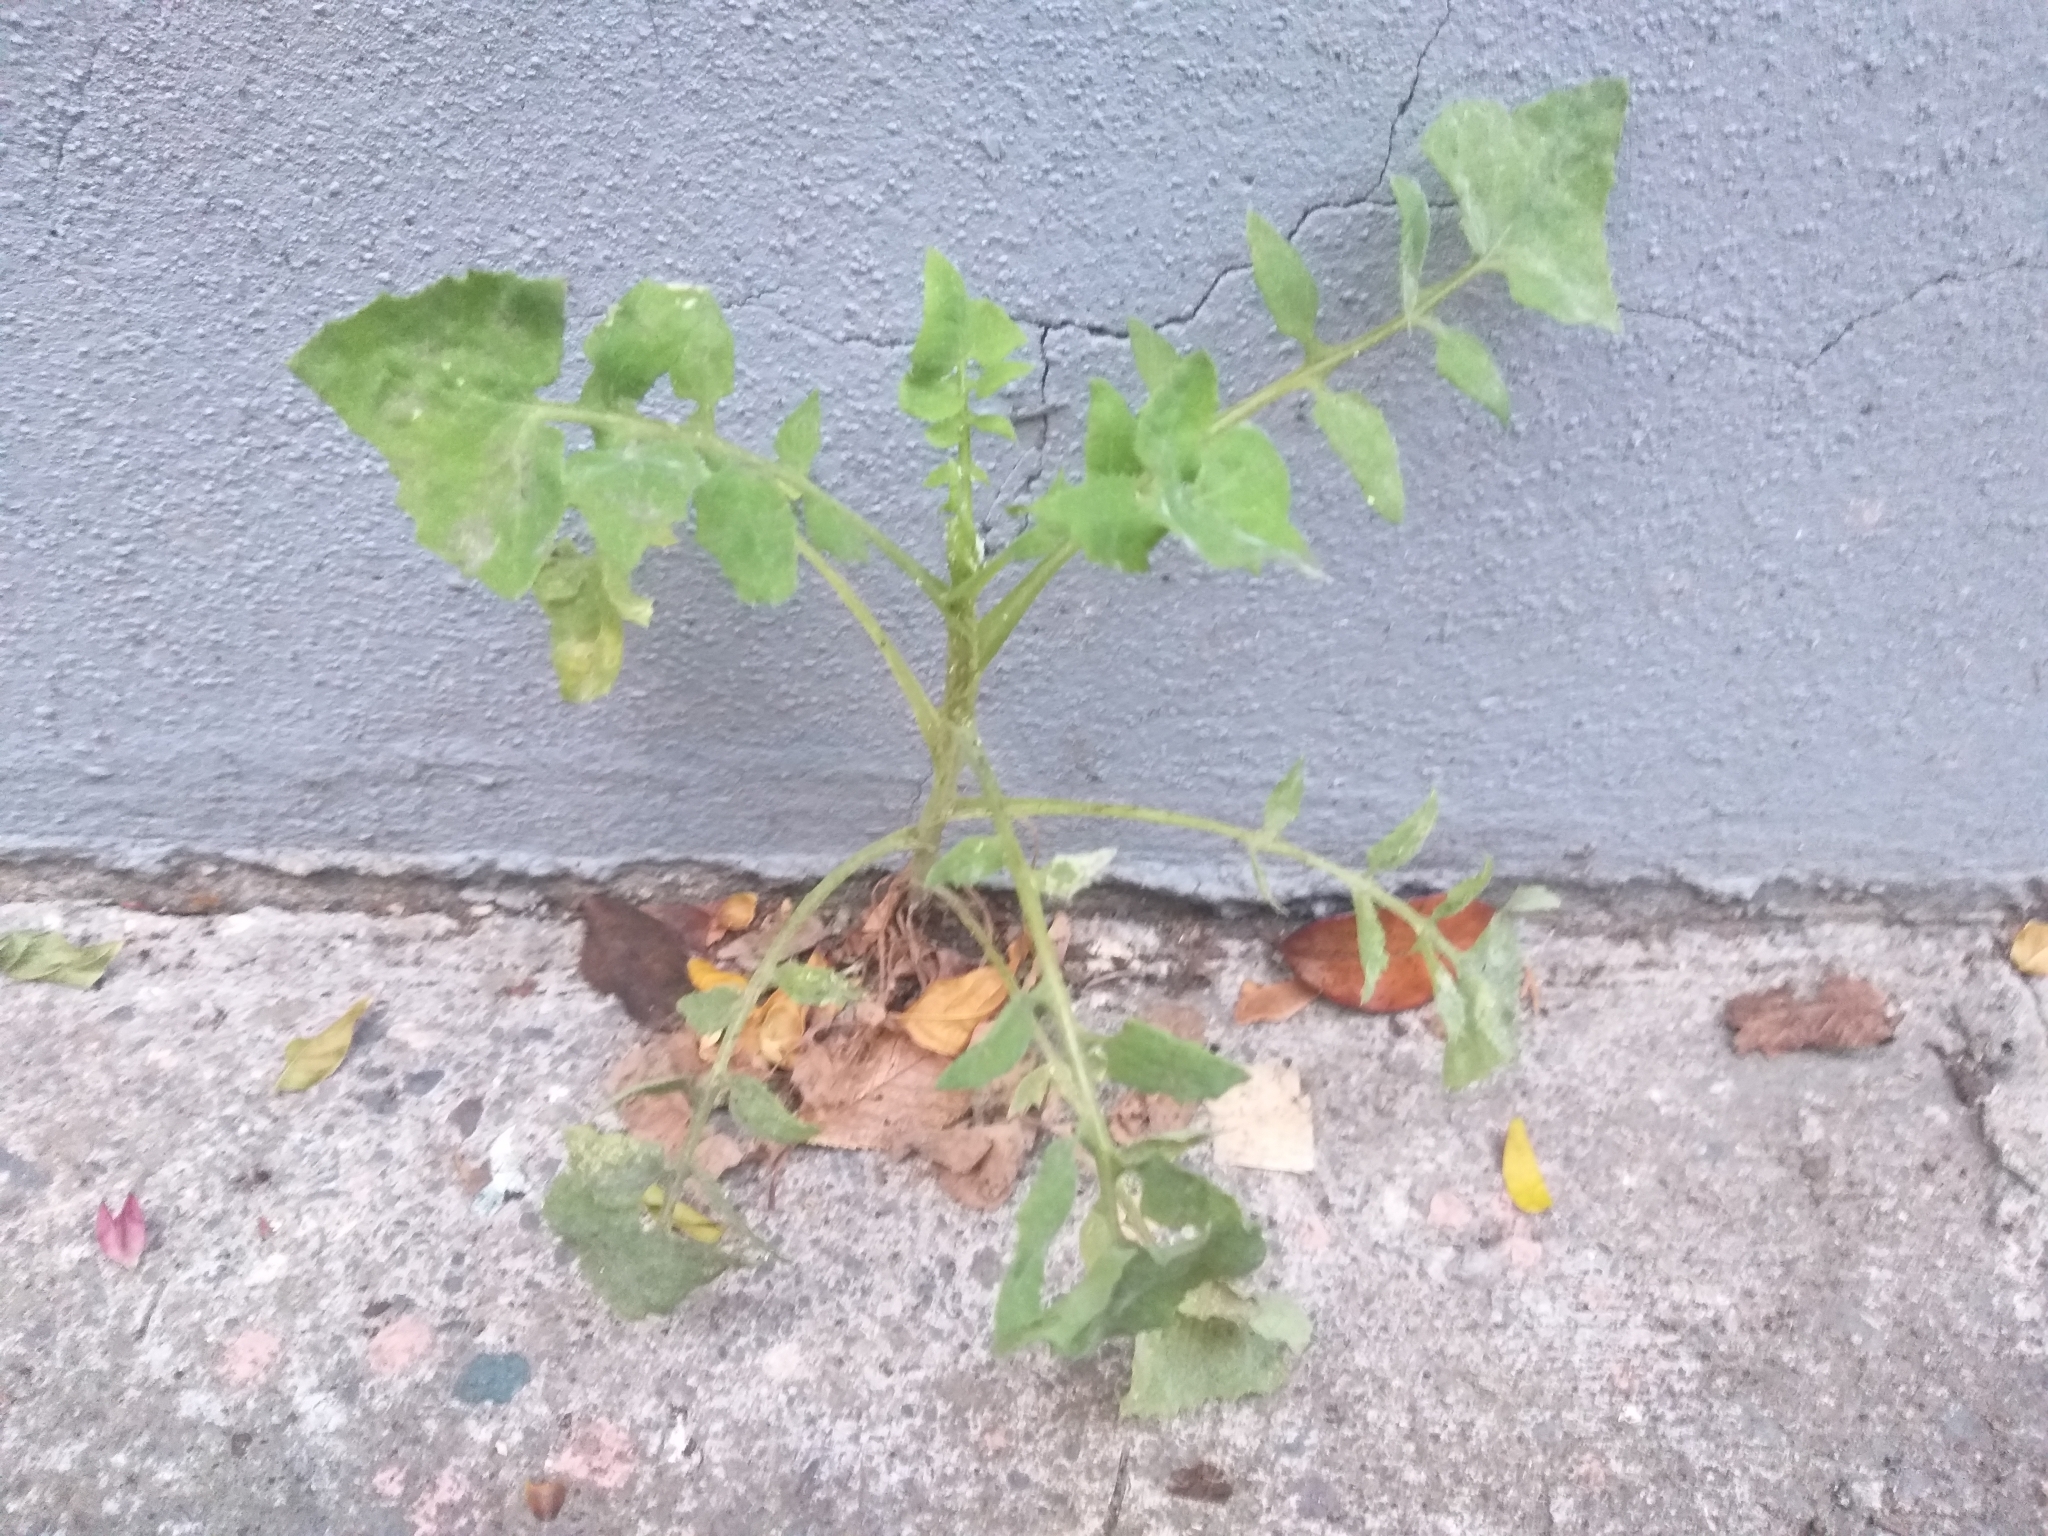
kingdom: Plantae
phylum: Tracheophyta
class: Magnoliopsida
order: Asterales
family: Asteraceae
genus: Sonchus
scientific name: Sonchus oleraceus
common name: Common sowthistle
